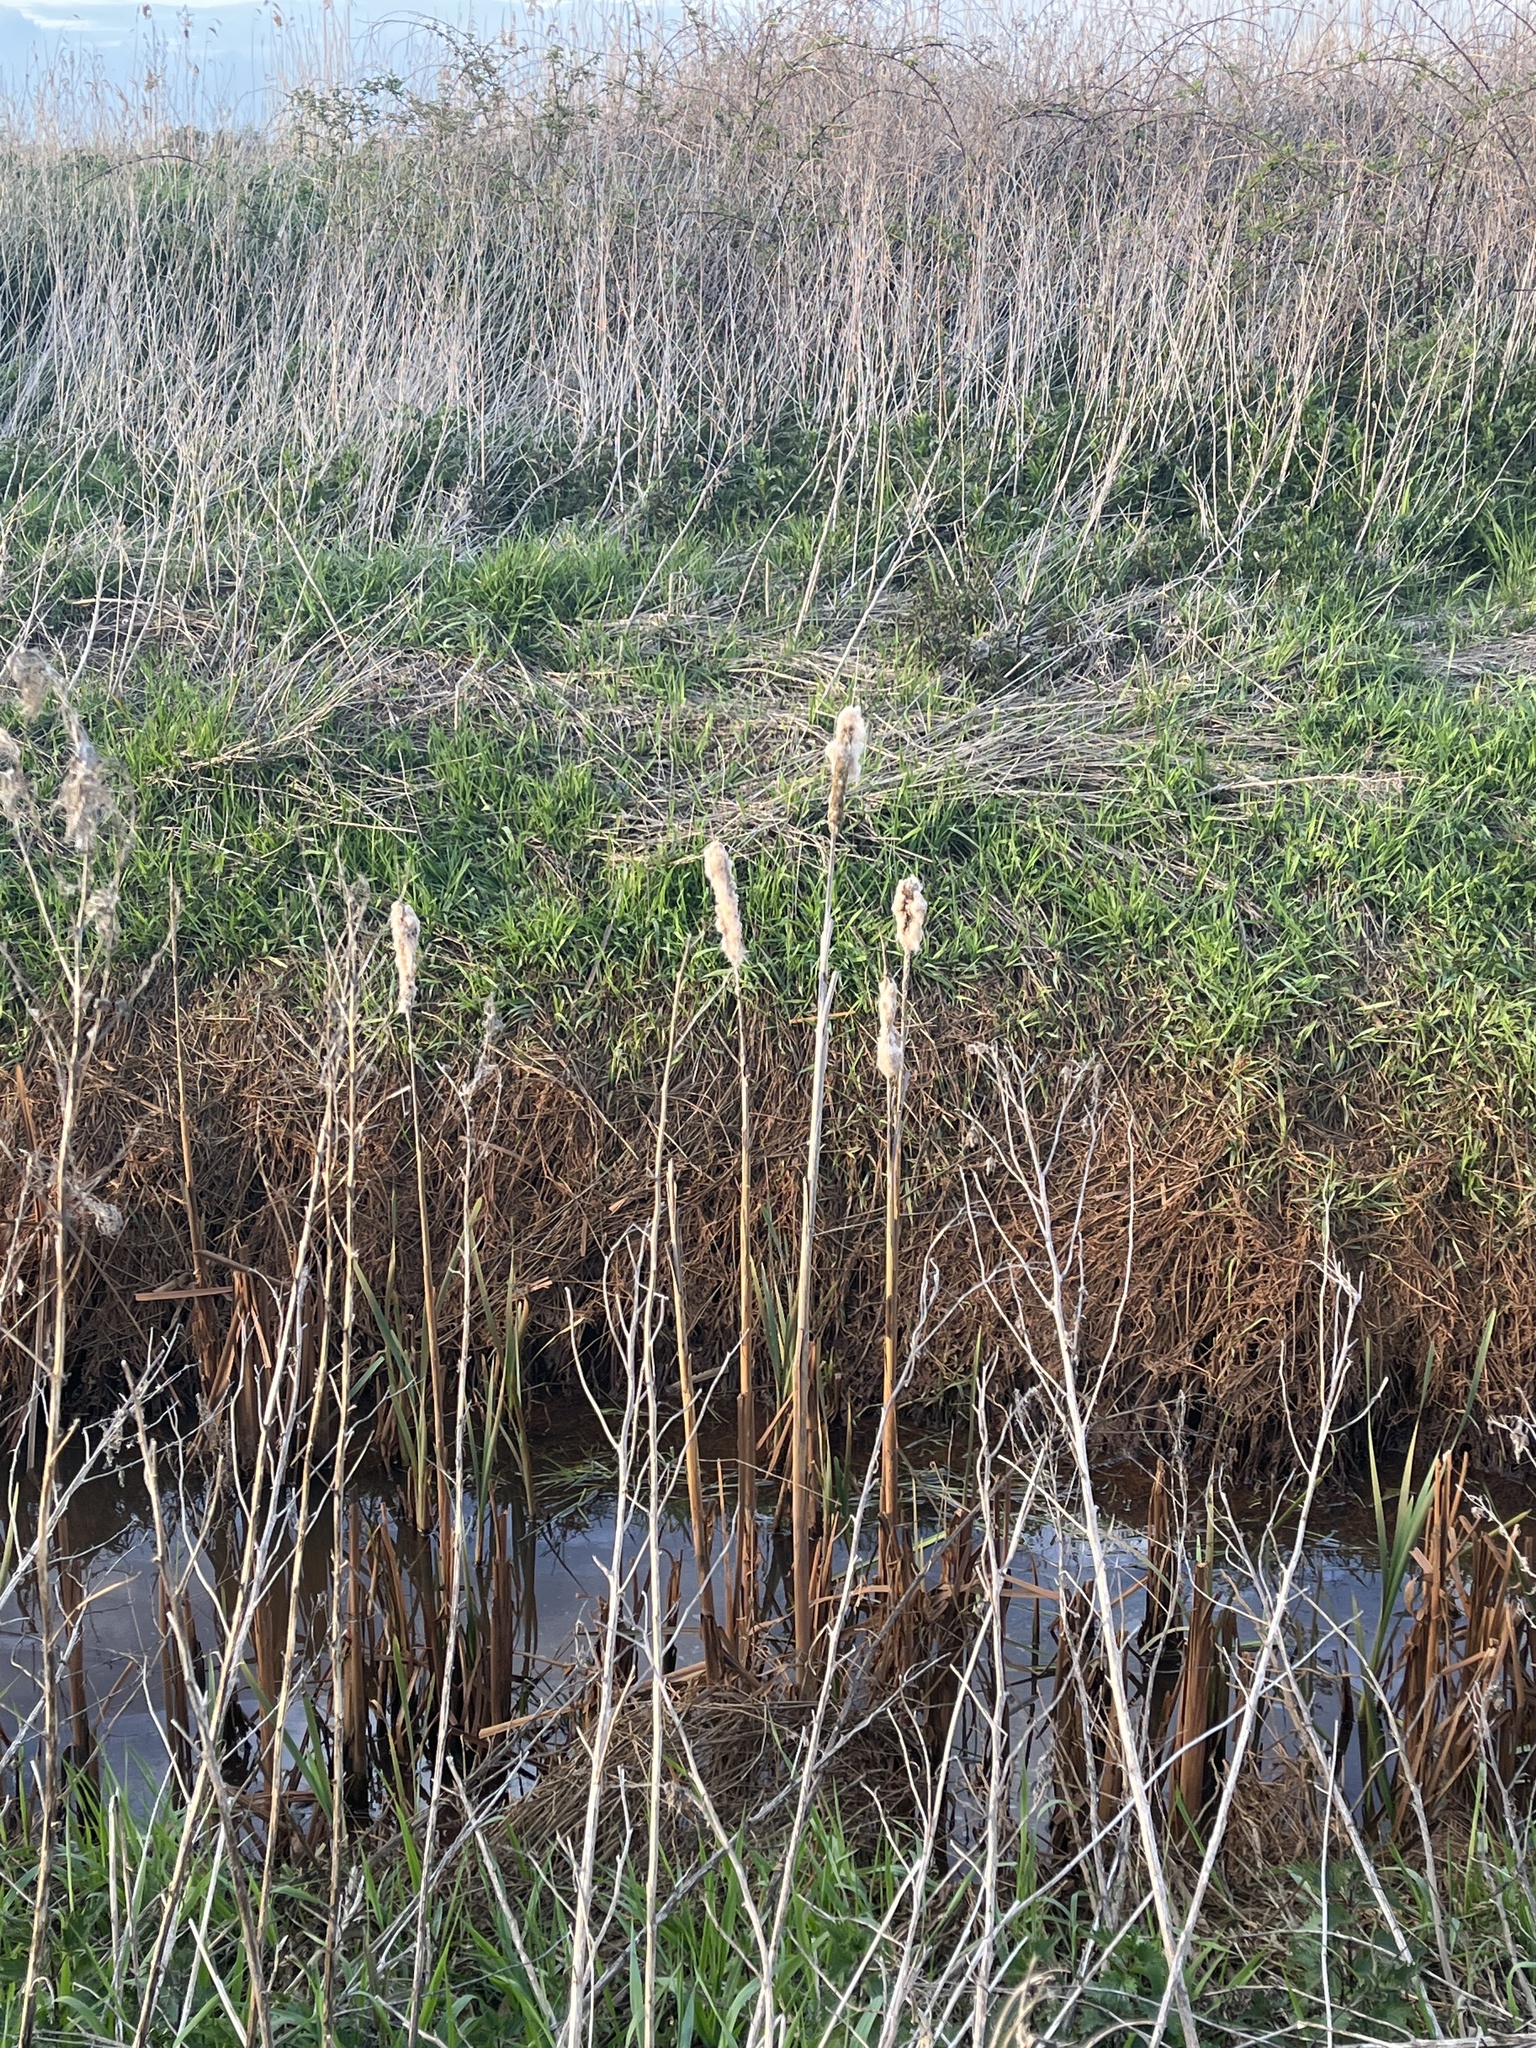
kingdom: Plantae
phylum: Tracheophyta
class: Liliopsida
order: Poales
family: Typhaceae
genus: Typha
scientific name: Typha latifolia
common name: Broadleaf cattail
